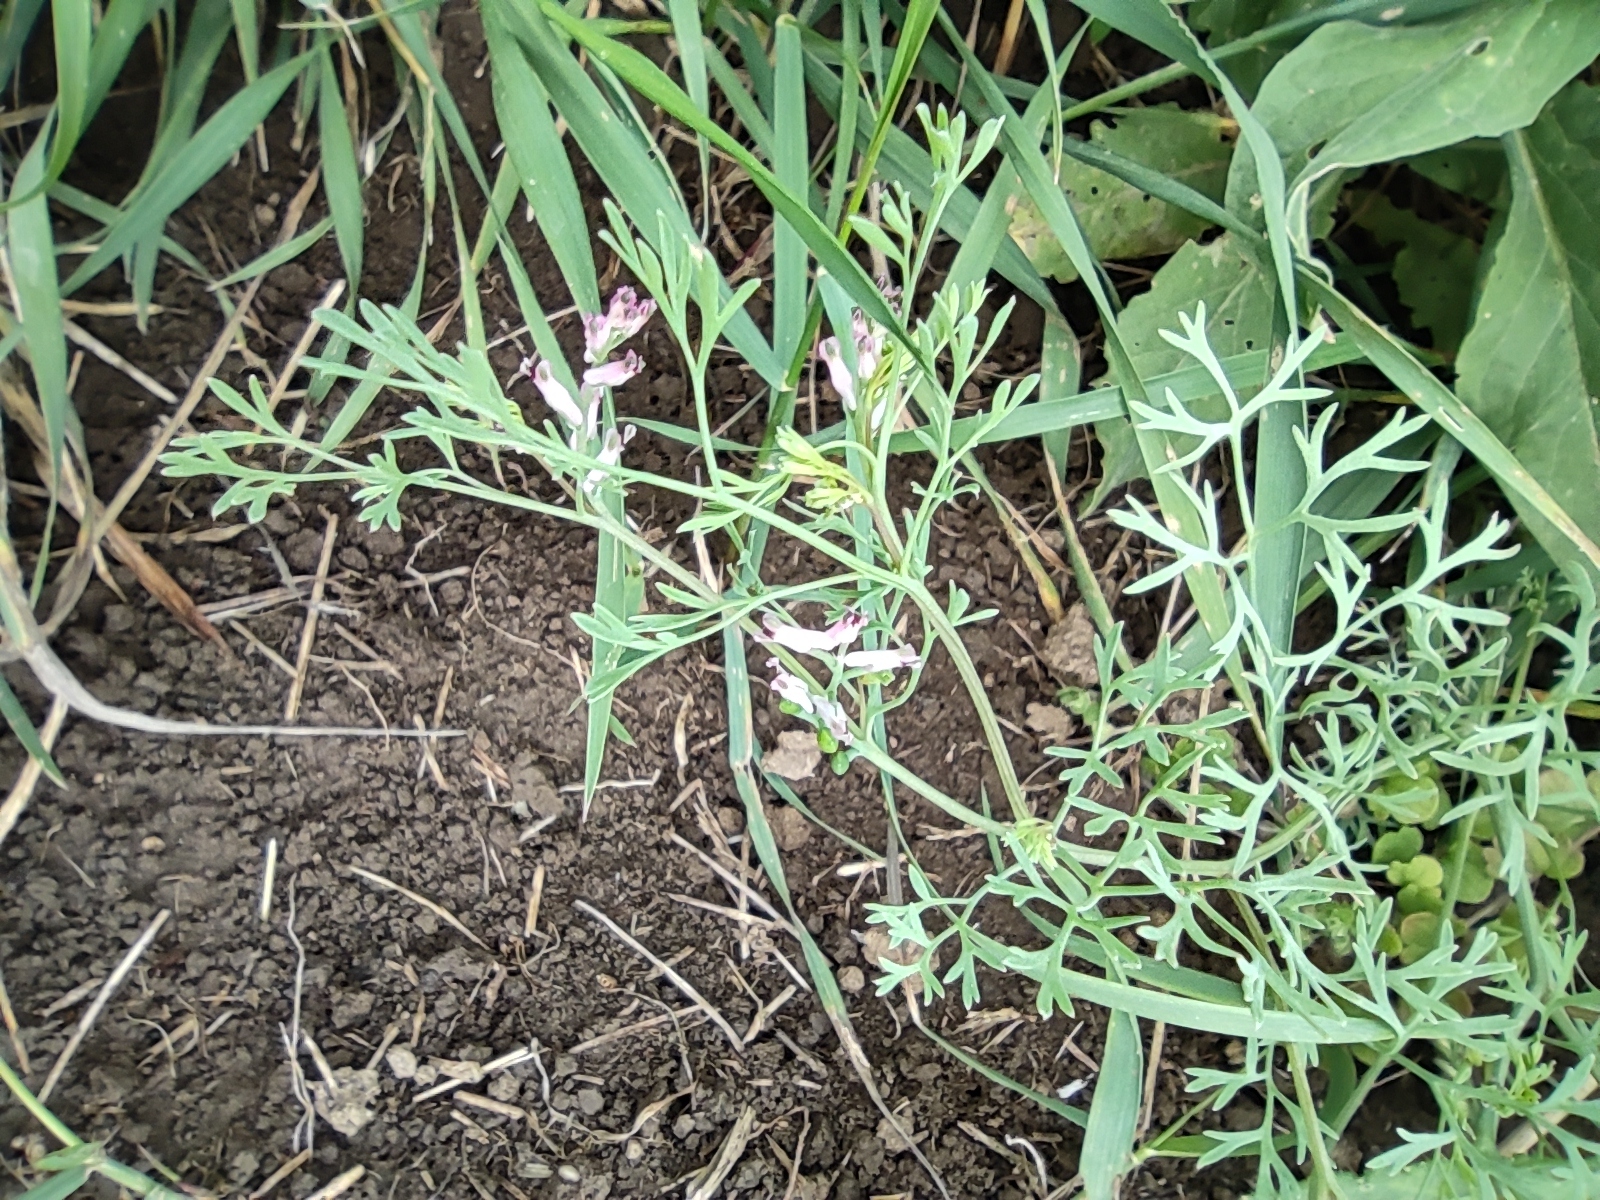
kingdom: Plantae
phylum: Tracheophyta
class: Magnoliopsida
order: Ranunculales
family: Papaveraceae
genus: Fumaria
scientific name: Fumaria officinalis
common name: Common fumitory
